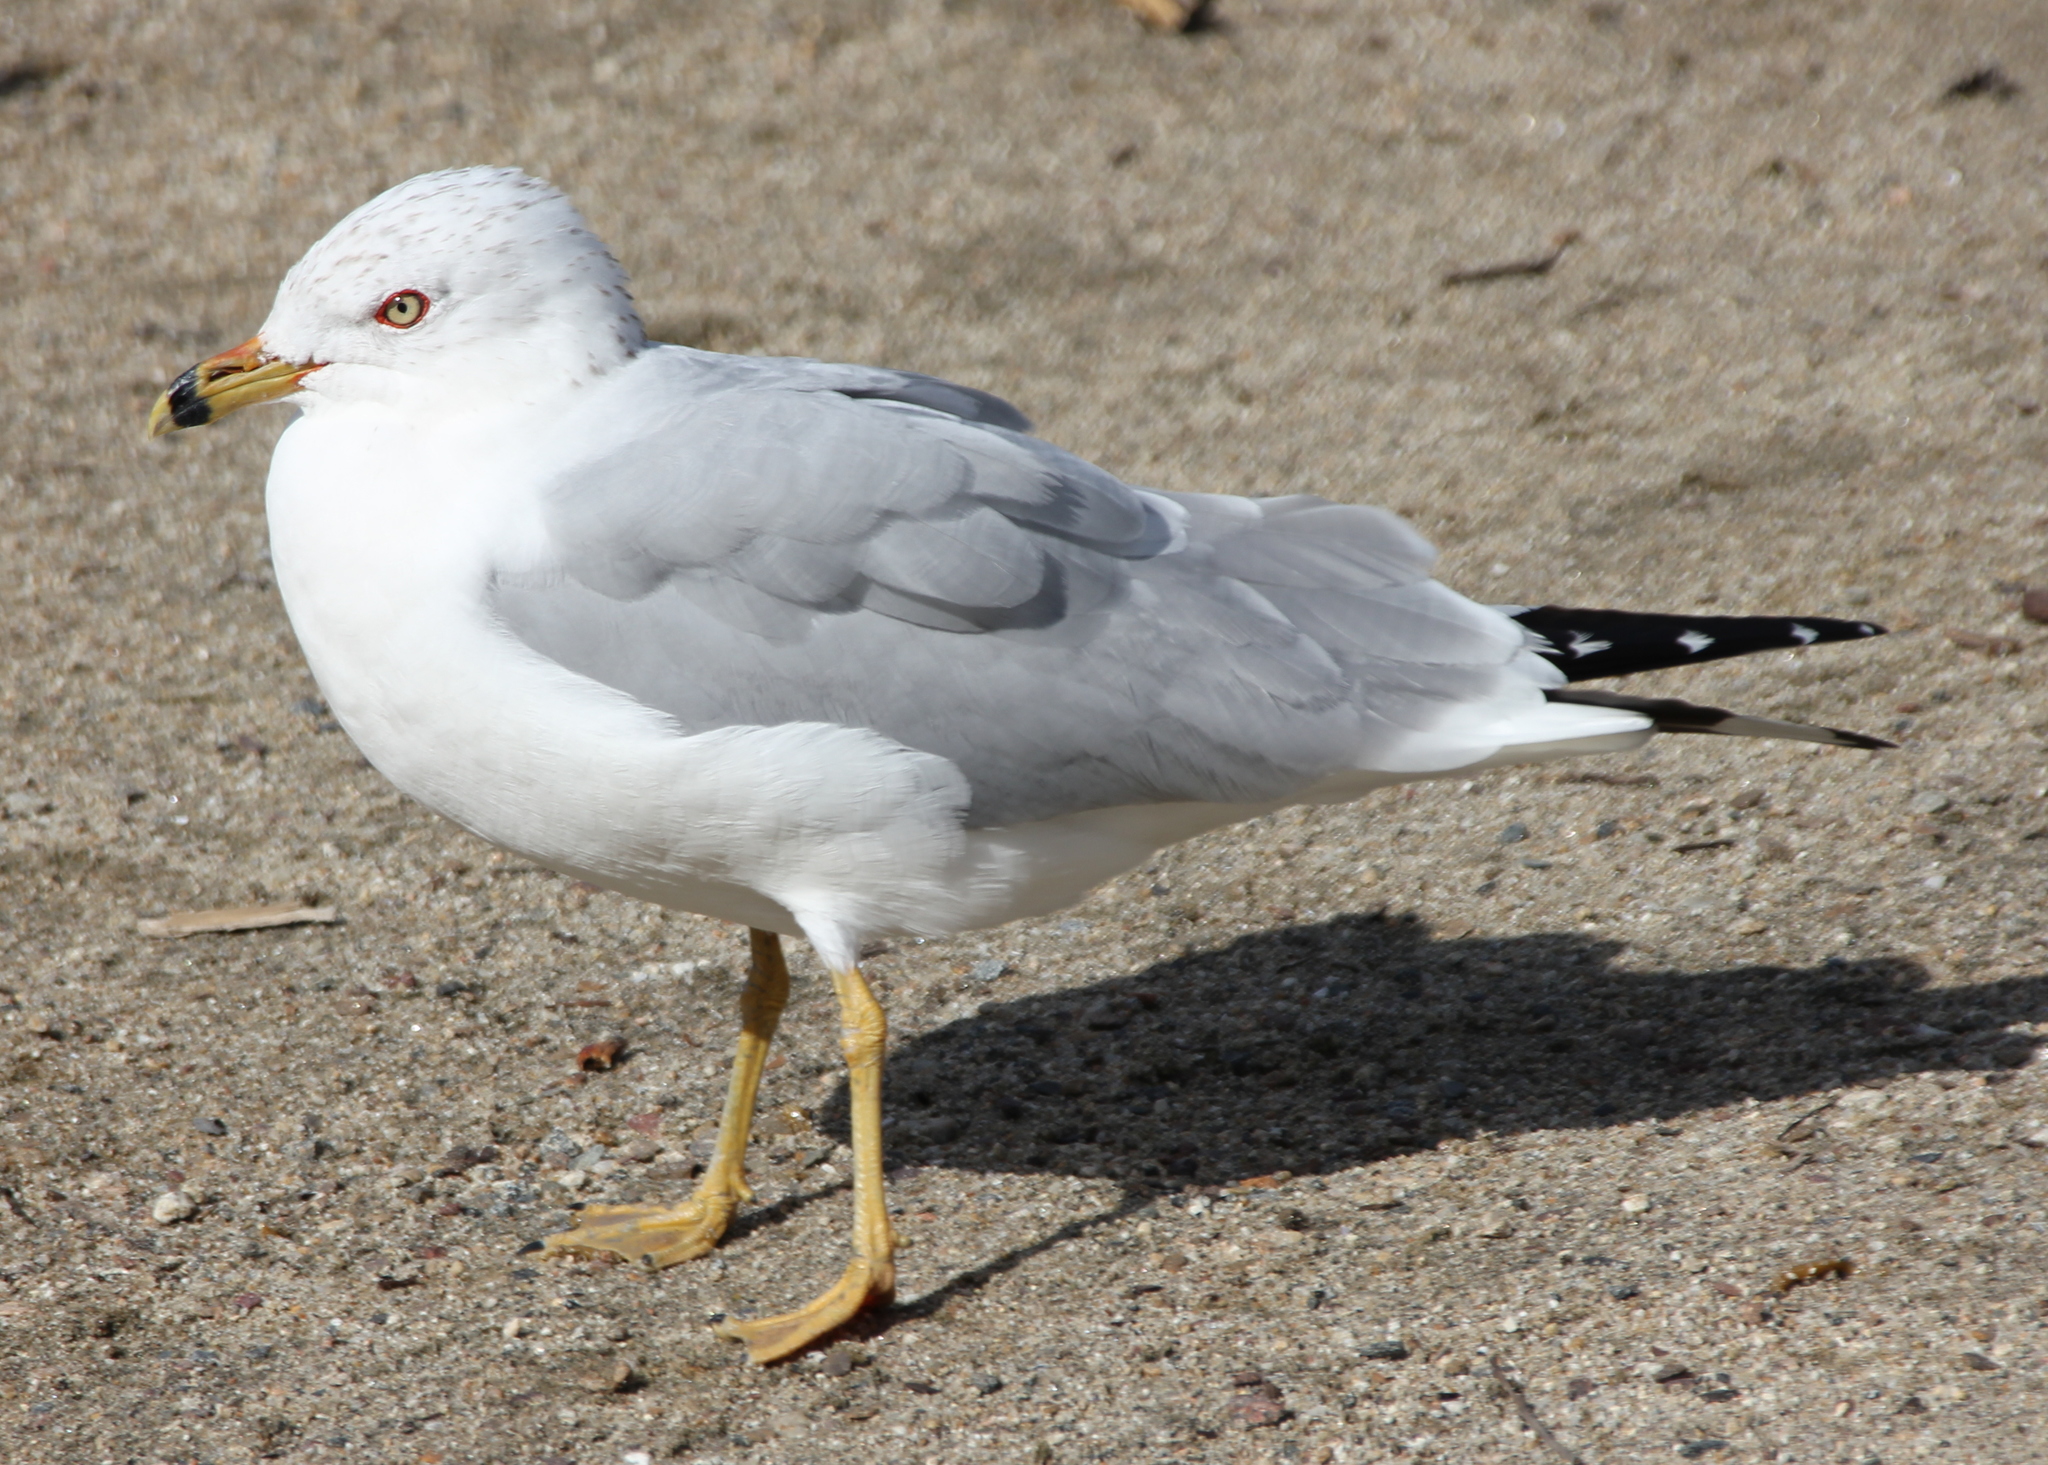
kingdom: Animalia
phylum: Chordata
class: Aves
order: Charadriiformes
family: Laridae
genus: Larus
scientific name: Larus delawarensis
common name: Ring-billed gull
